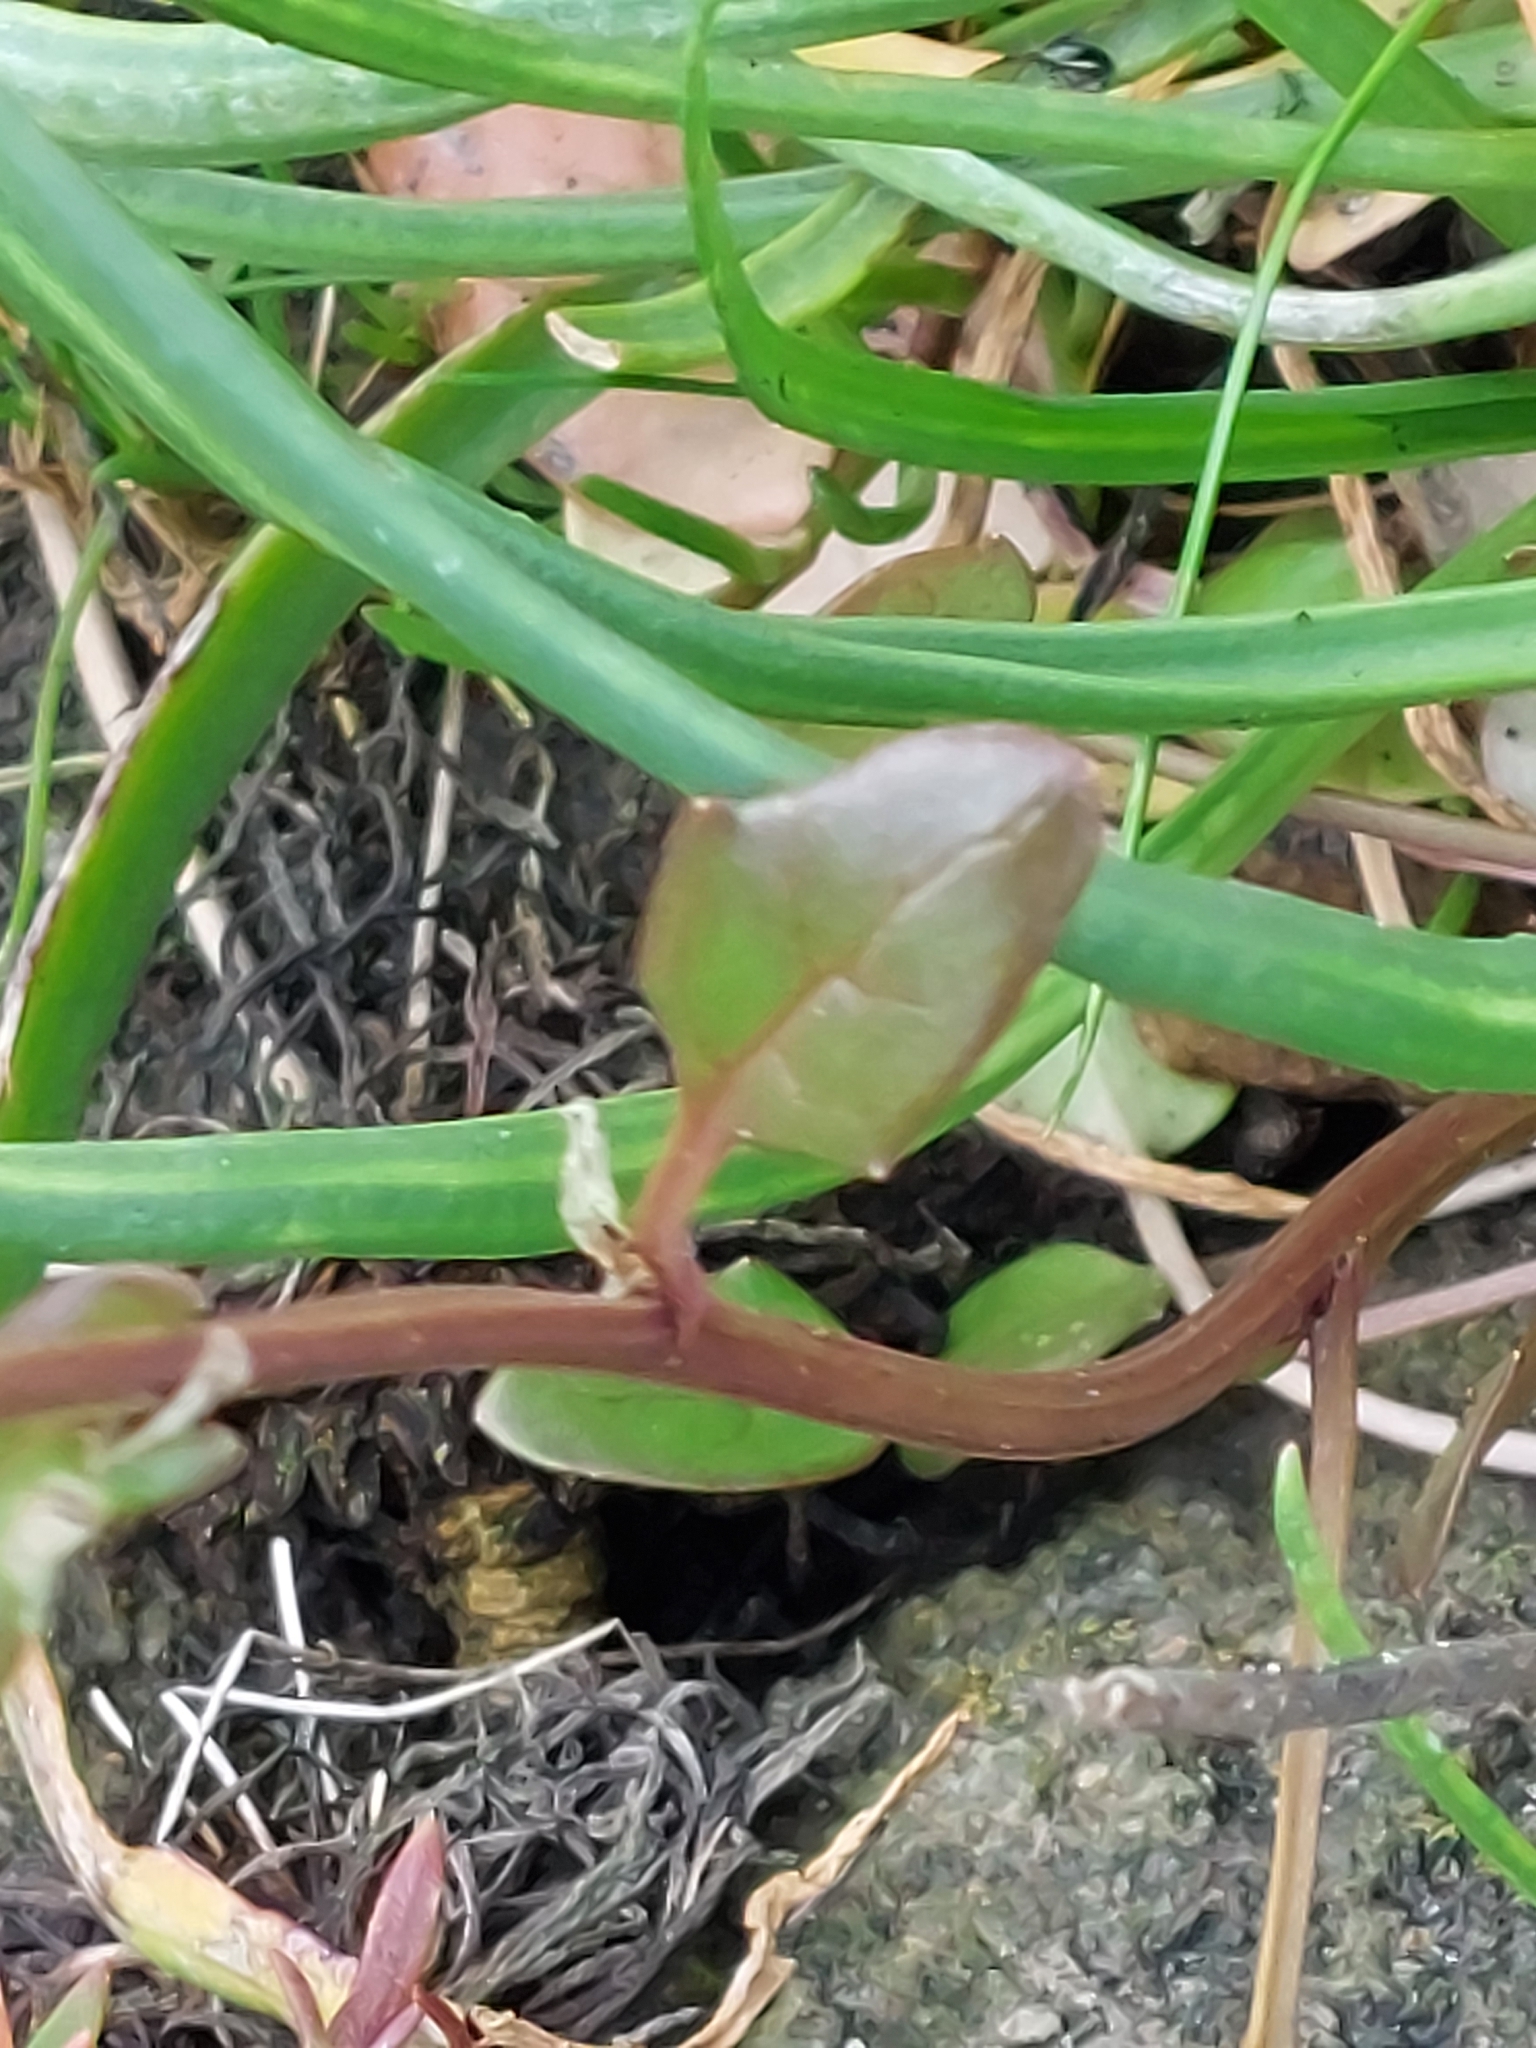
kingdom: Plantae
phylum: Tracheophyta
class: Magnoliopsida
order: Brassicales
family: Brassicaceae
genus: Cochlearia
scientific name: Cochlearia anglica
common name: English scurvygrass
